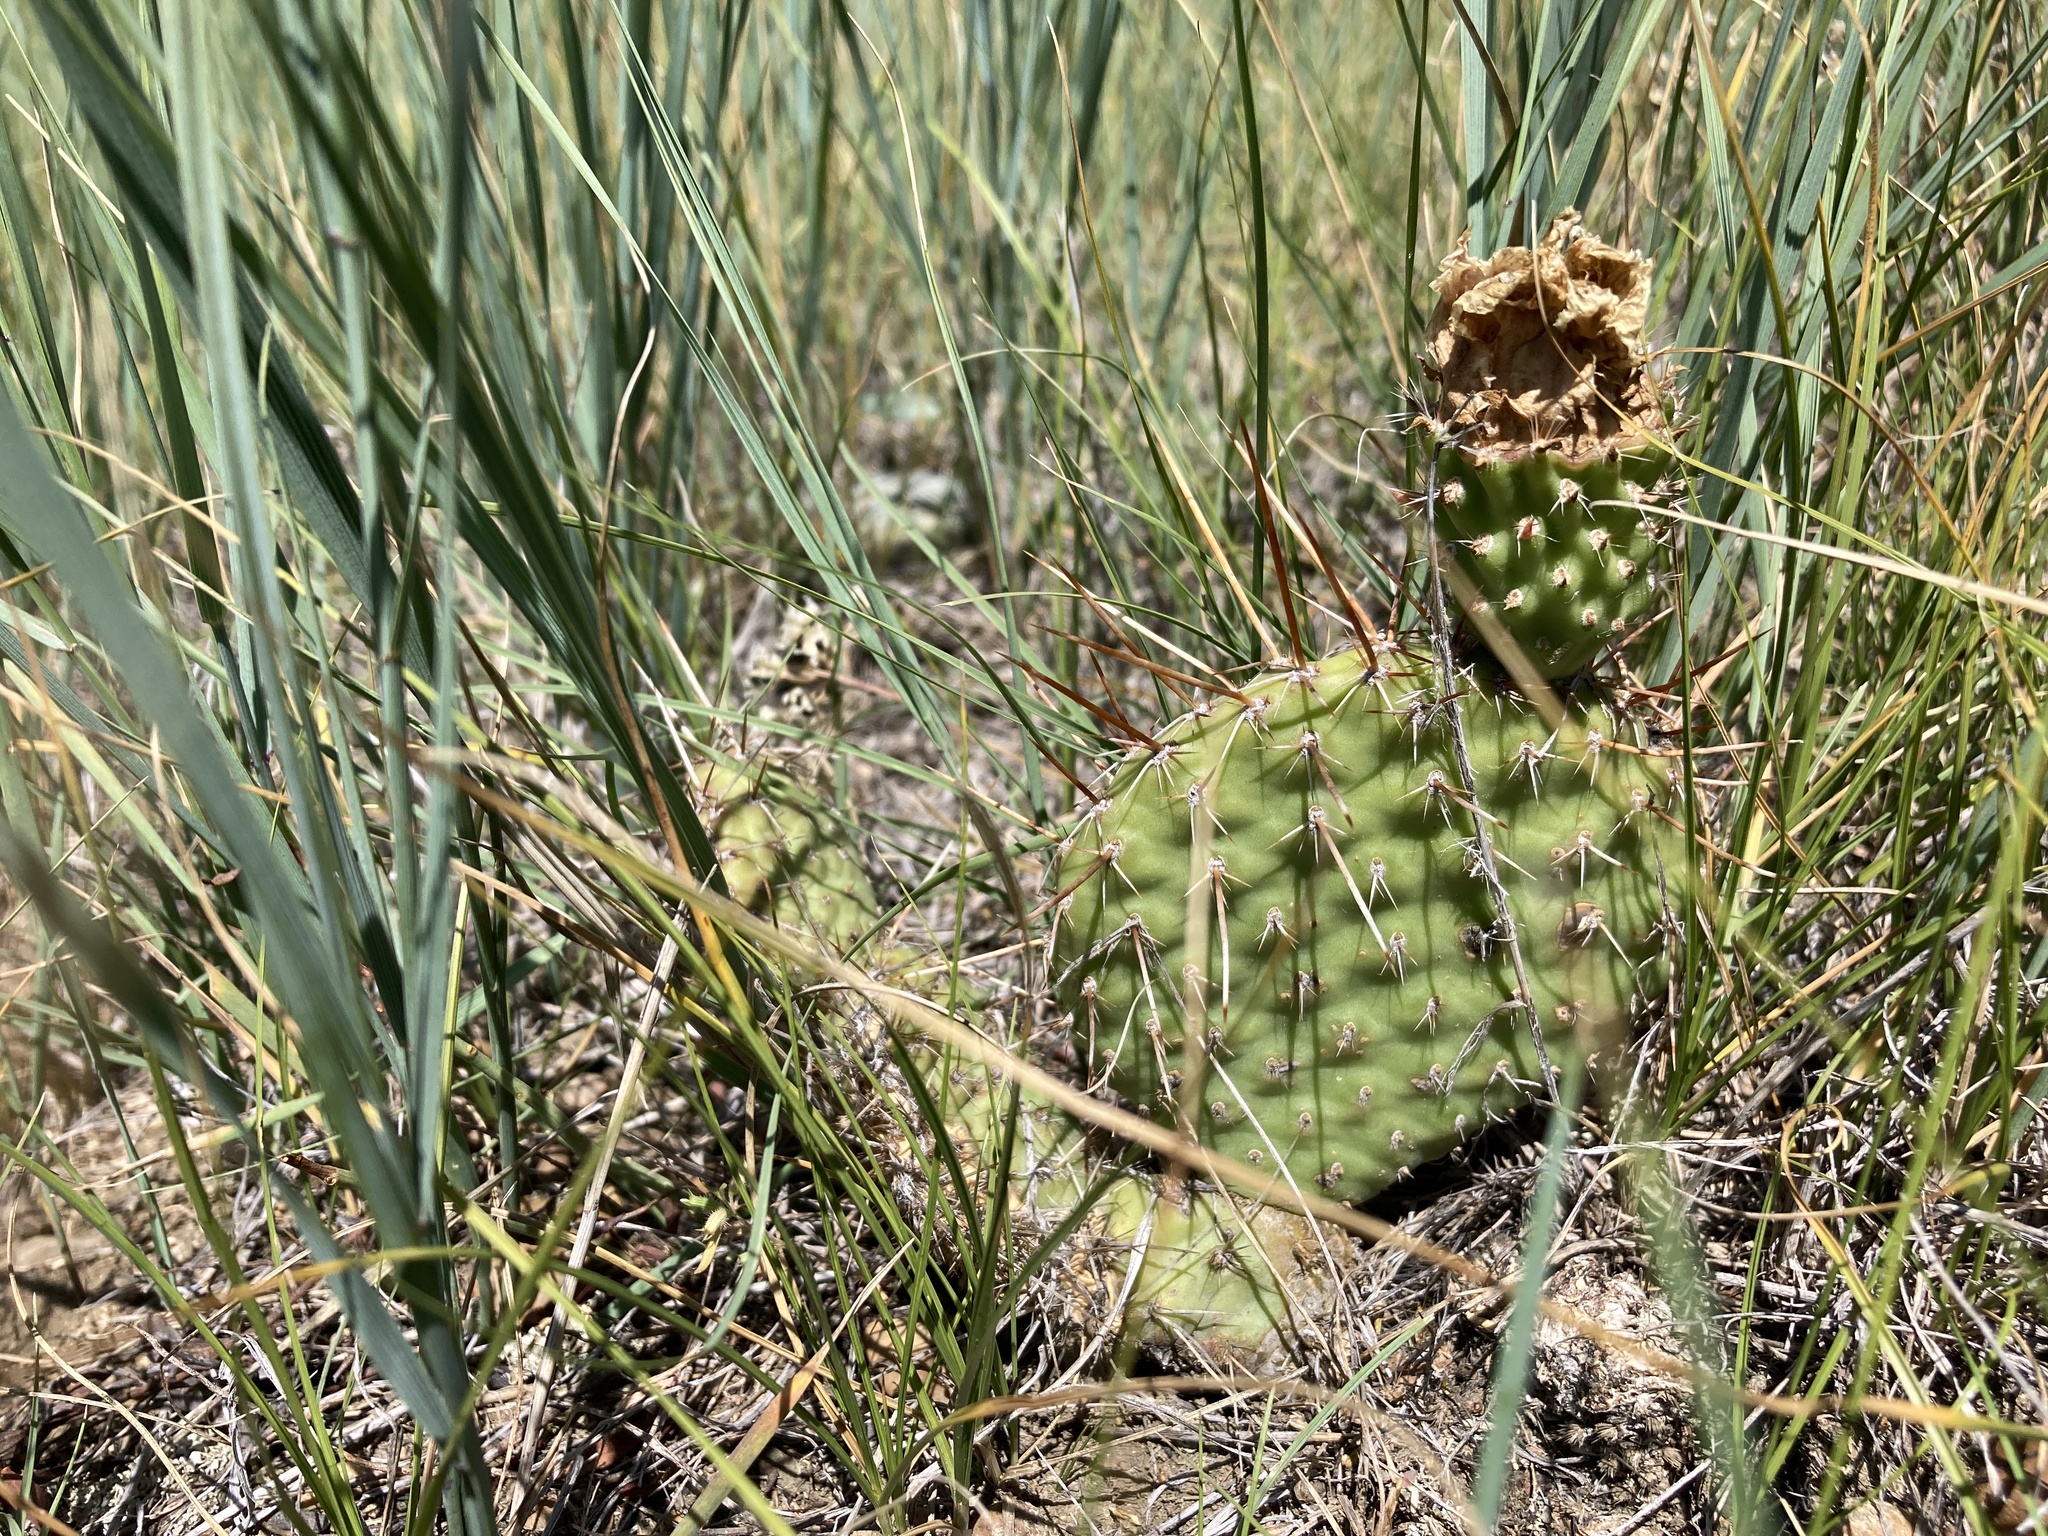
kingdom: Plantae
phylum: Tracheophyta
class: Magnoliopsida
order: Caryophyllales
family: Cactaceae
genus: Opuntia
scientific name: Opuntia polyacantha
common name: Plains prickly-pear
